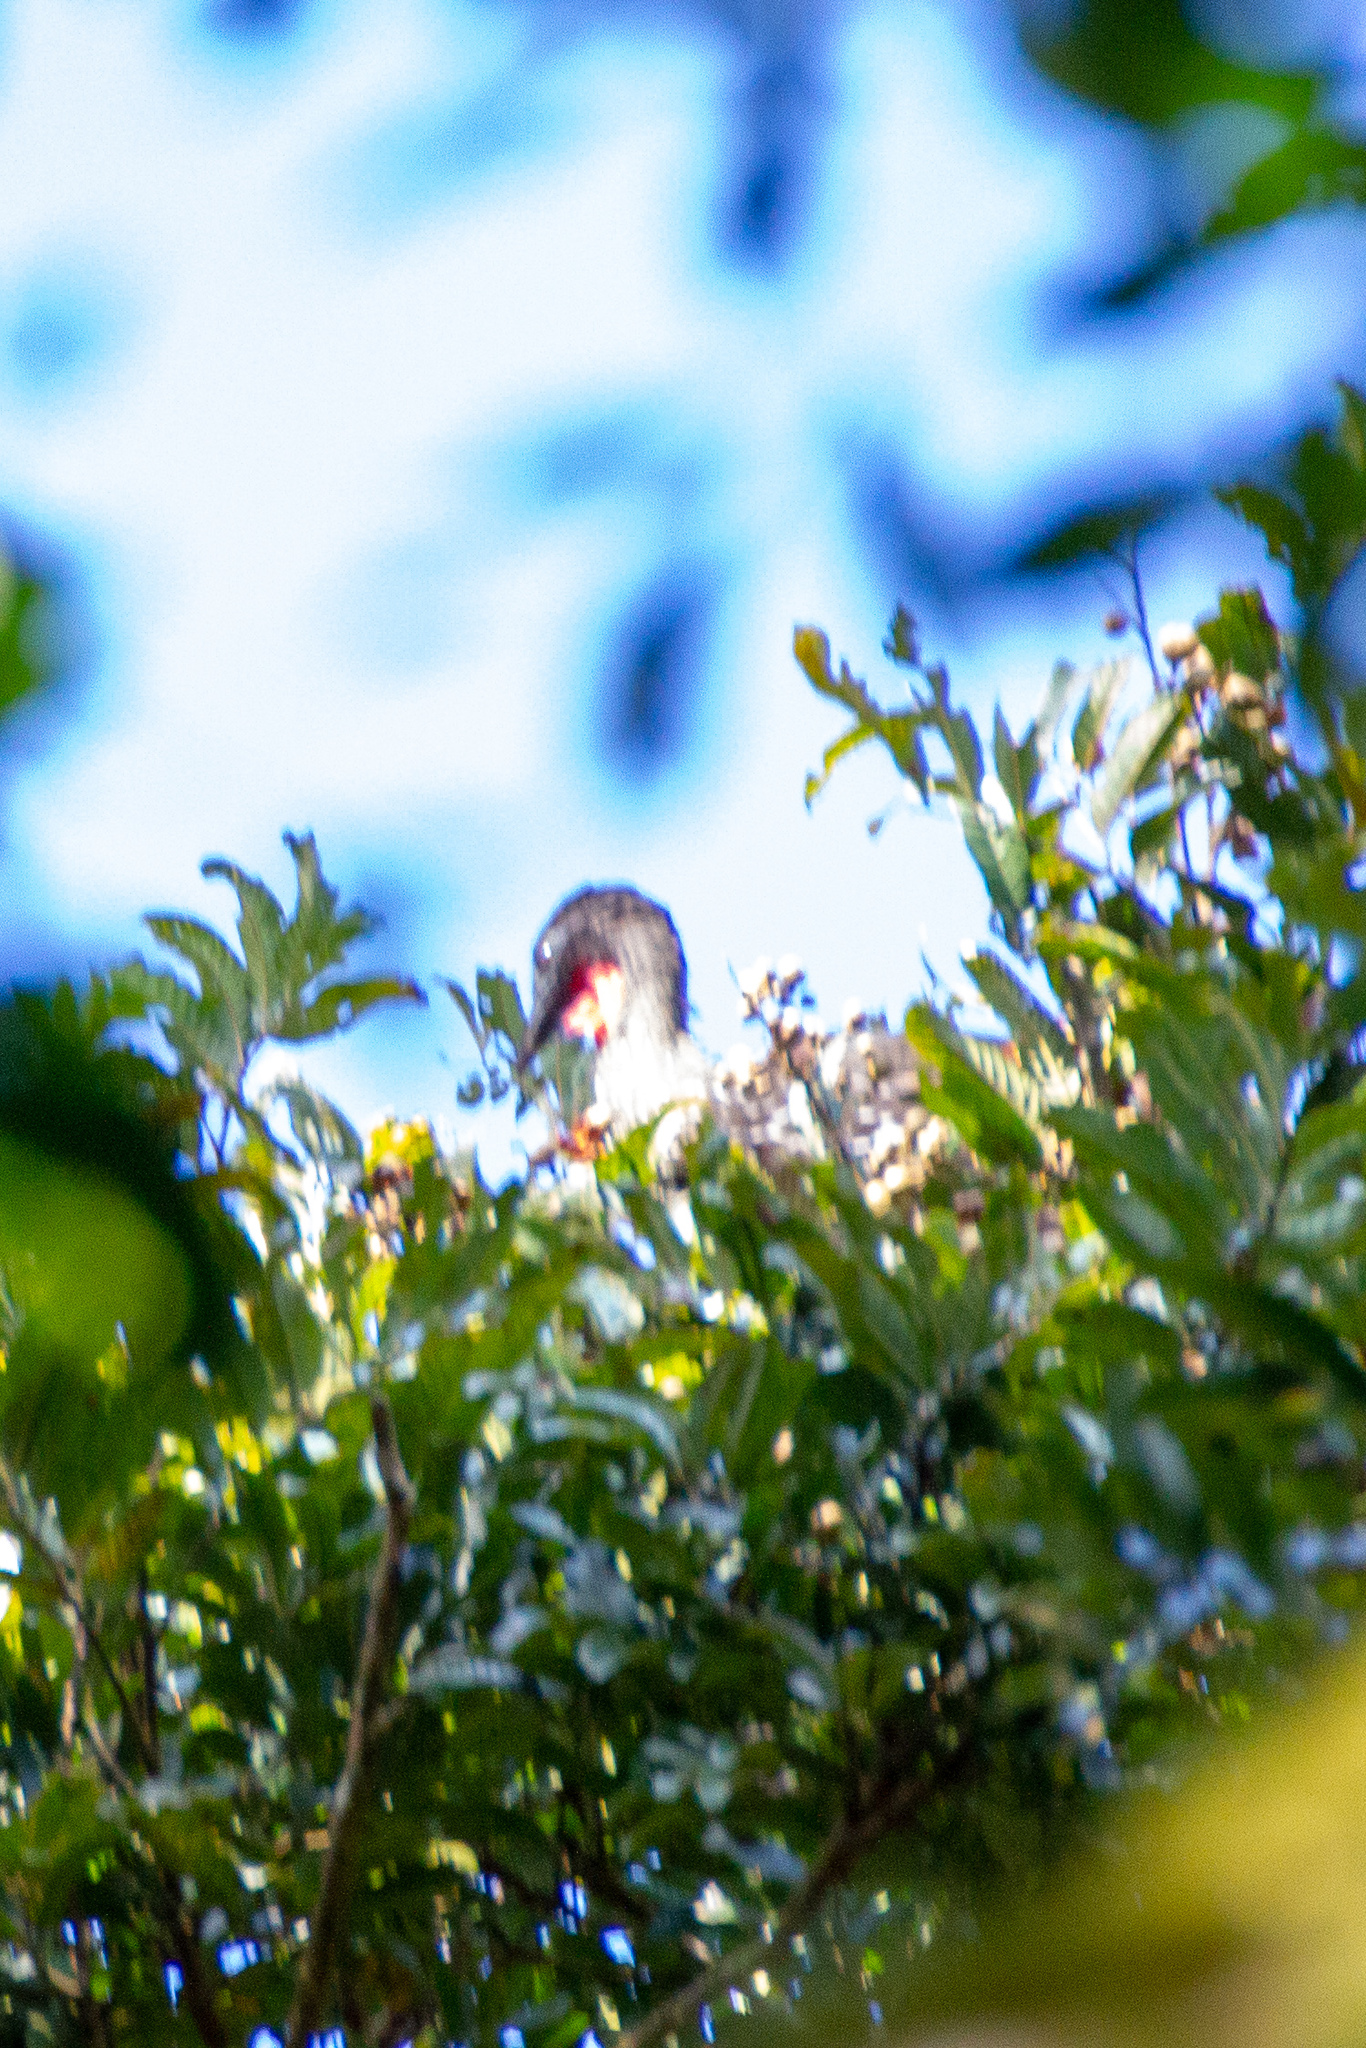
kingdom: Animalia
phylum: Chordata
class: Aves
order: Galliformes
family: Cracidae
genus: Penelope
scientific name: Penelope purpurascens
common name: Crested guan
